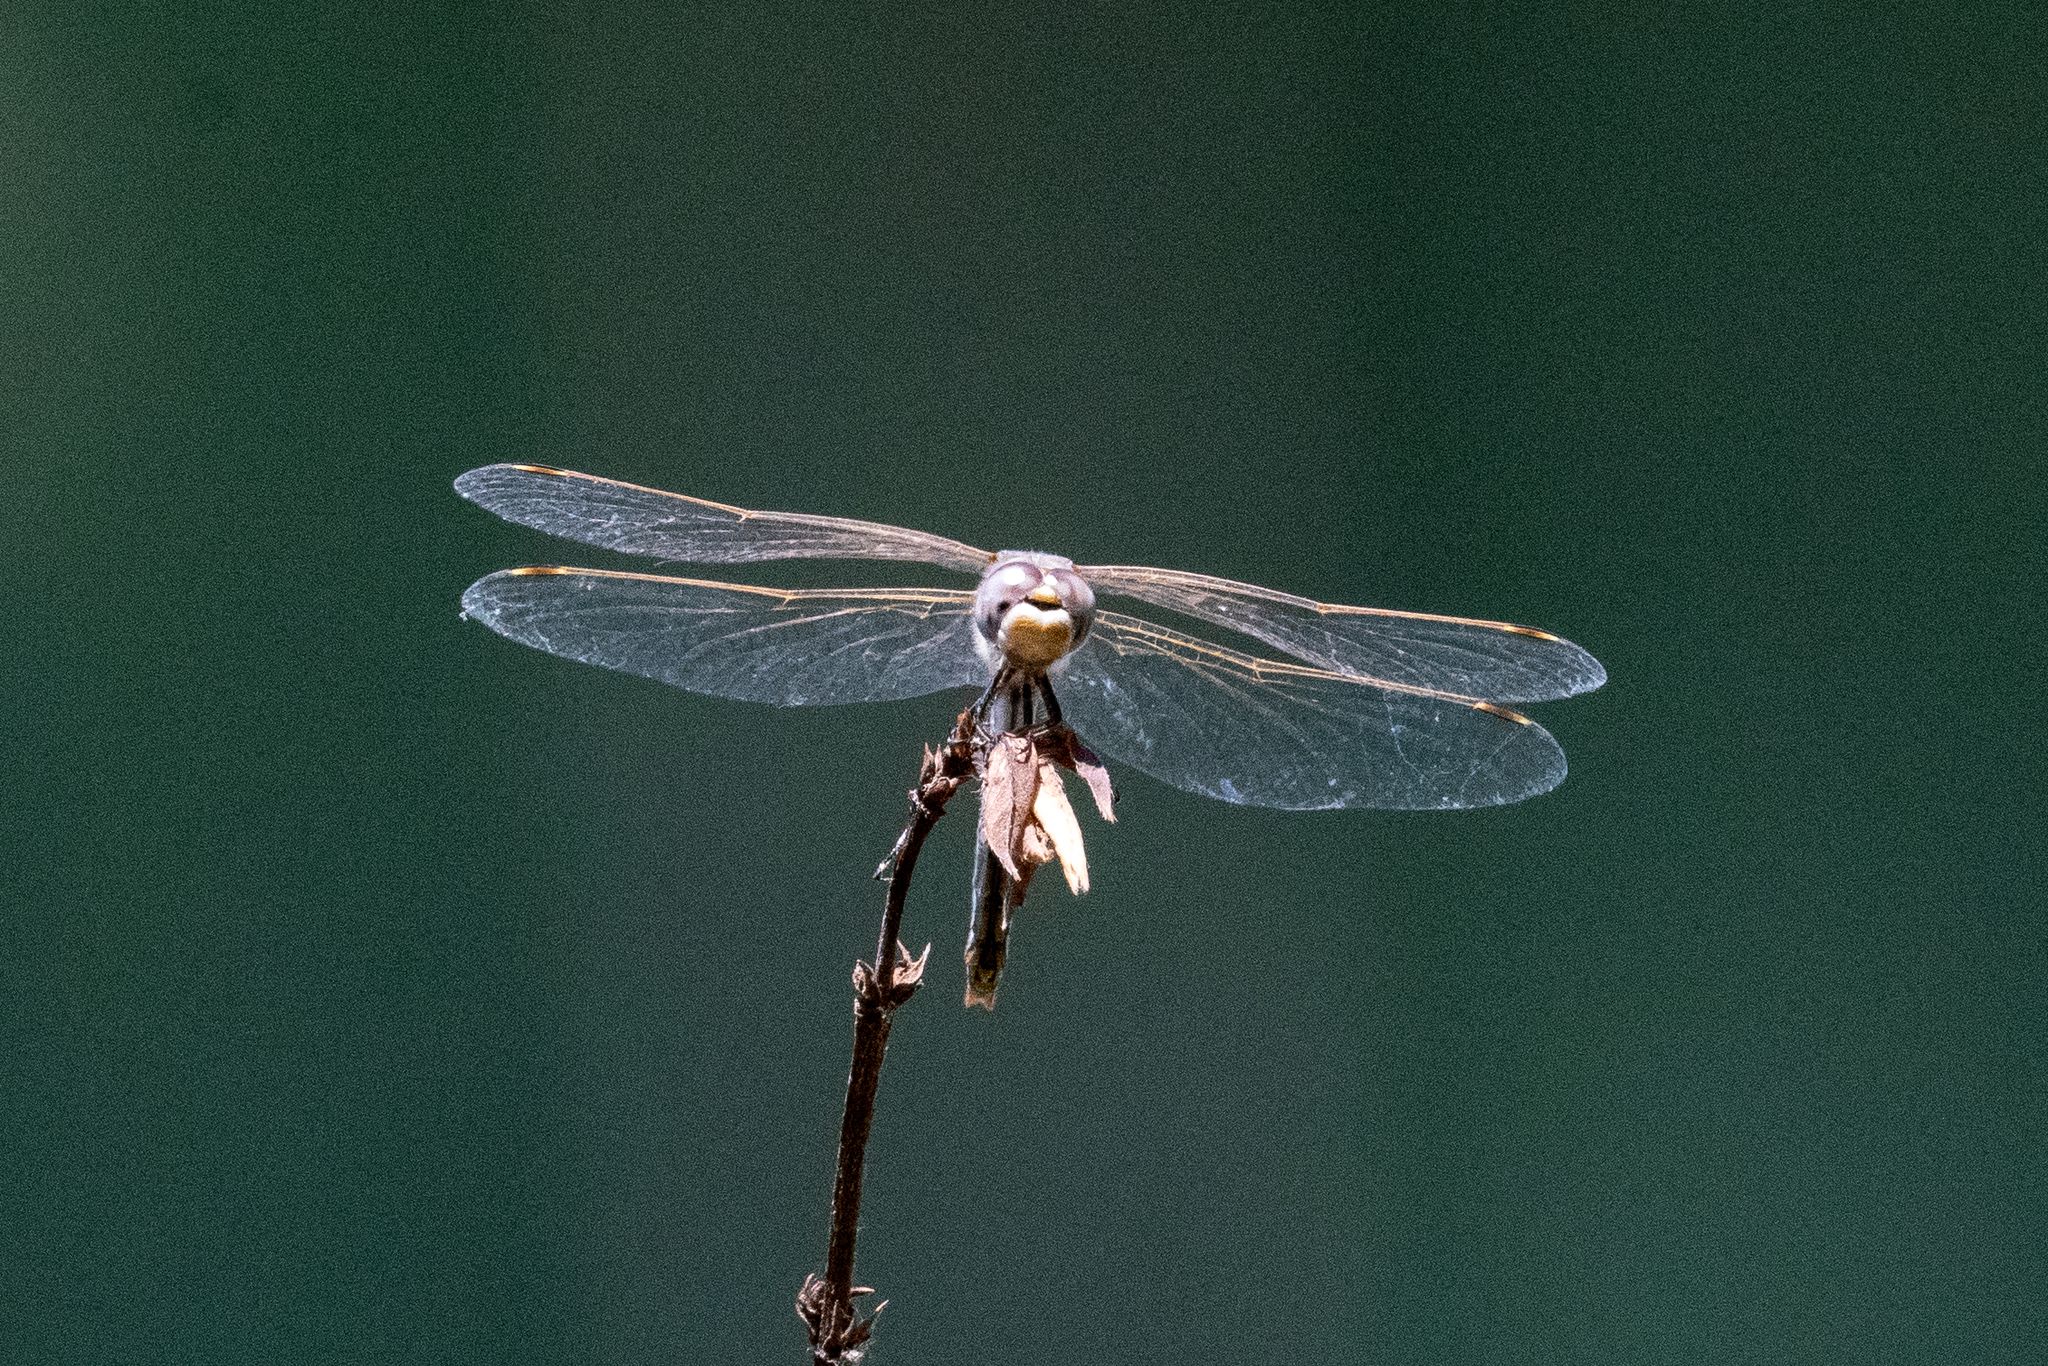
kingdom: Animalia
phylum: Arthropoda
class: Insecta
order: Odonata
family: Libellulidae
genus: Sympetrum
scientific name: Sympetrum corruptum
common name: Variegated meadowhawk
